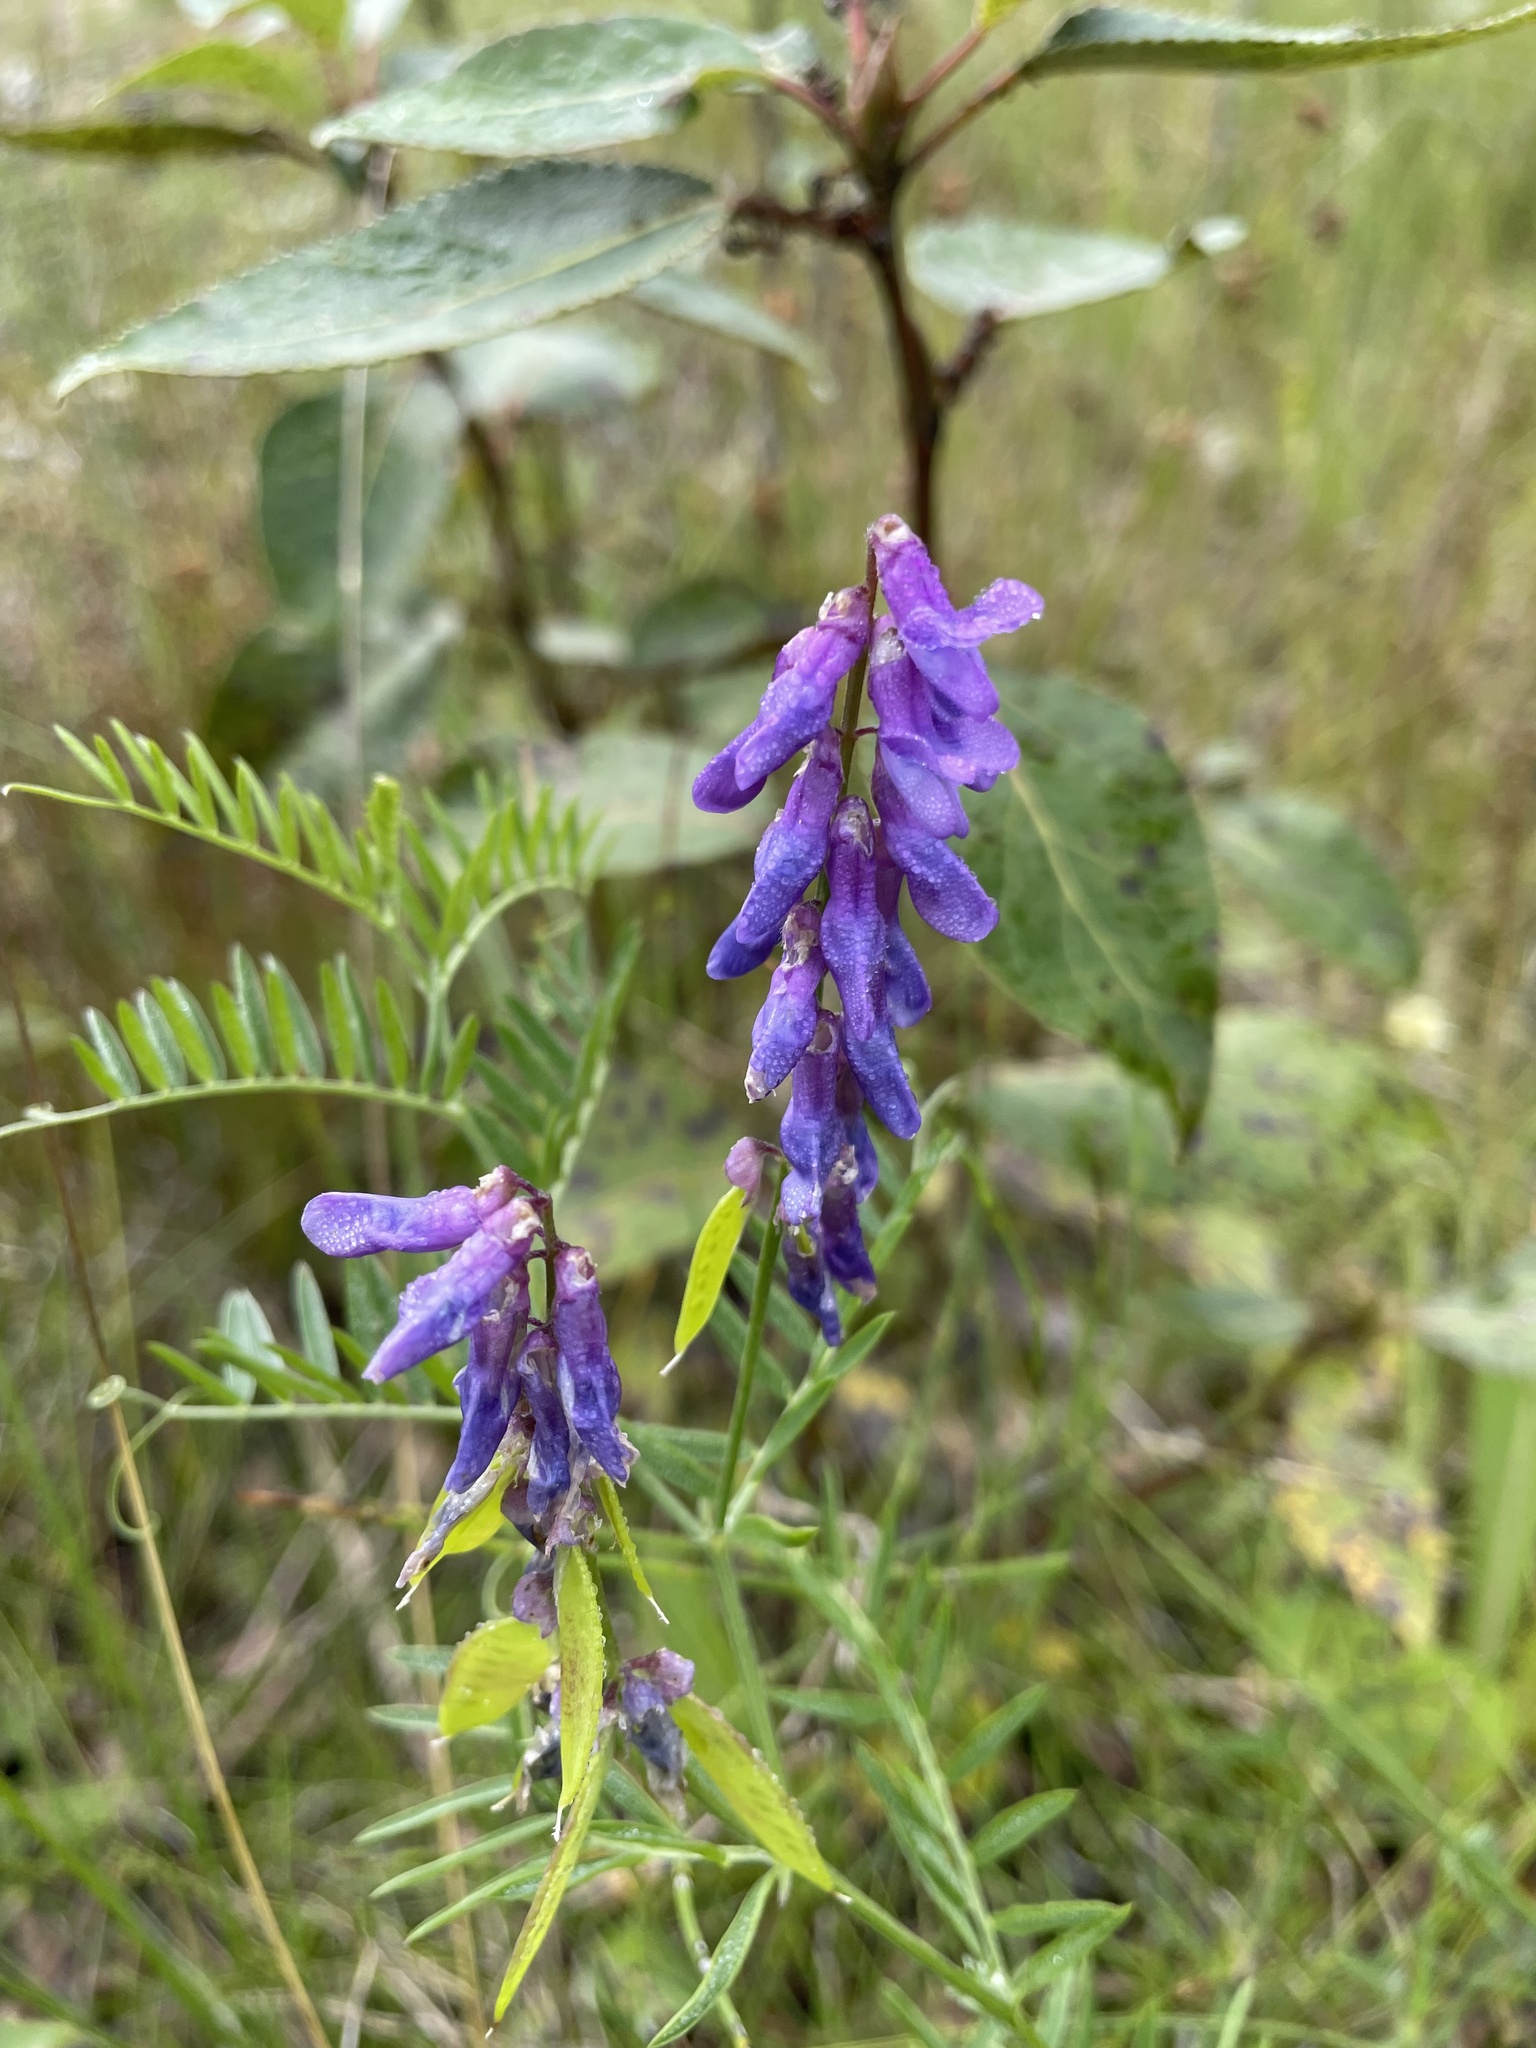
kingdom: Plantae
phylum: Tracheophyta
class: Magnoliopsida
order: Fabales
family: Fabaceae
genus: Vicia
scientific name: Vicia cracca
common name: Bird vetch
